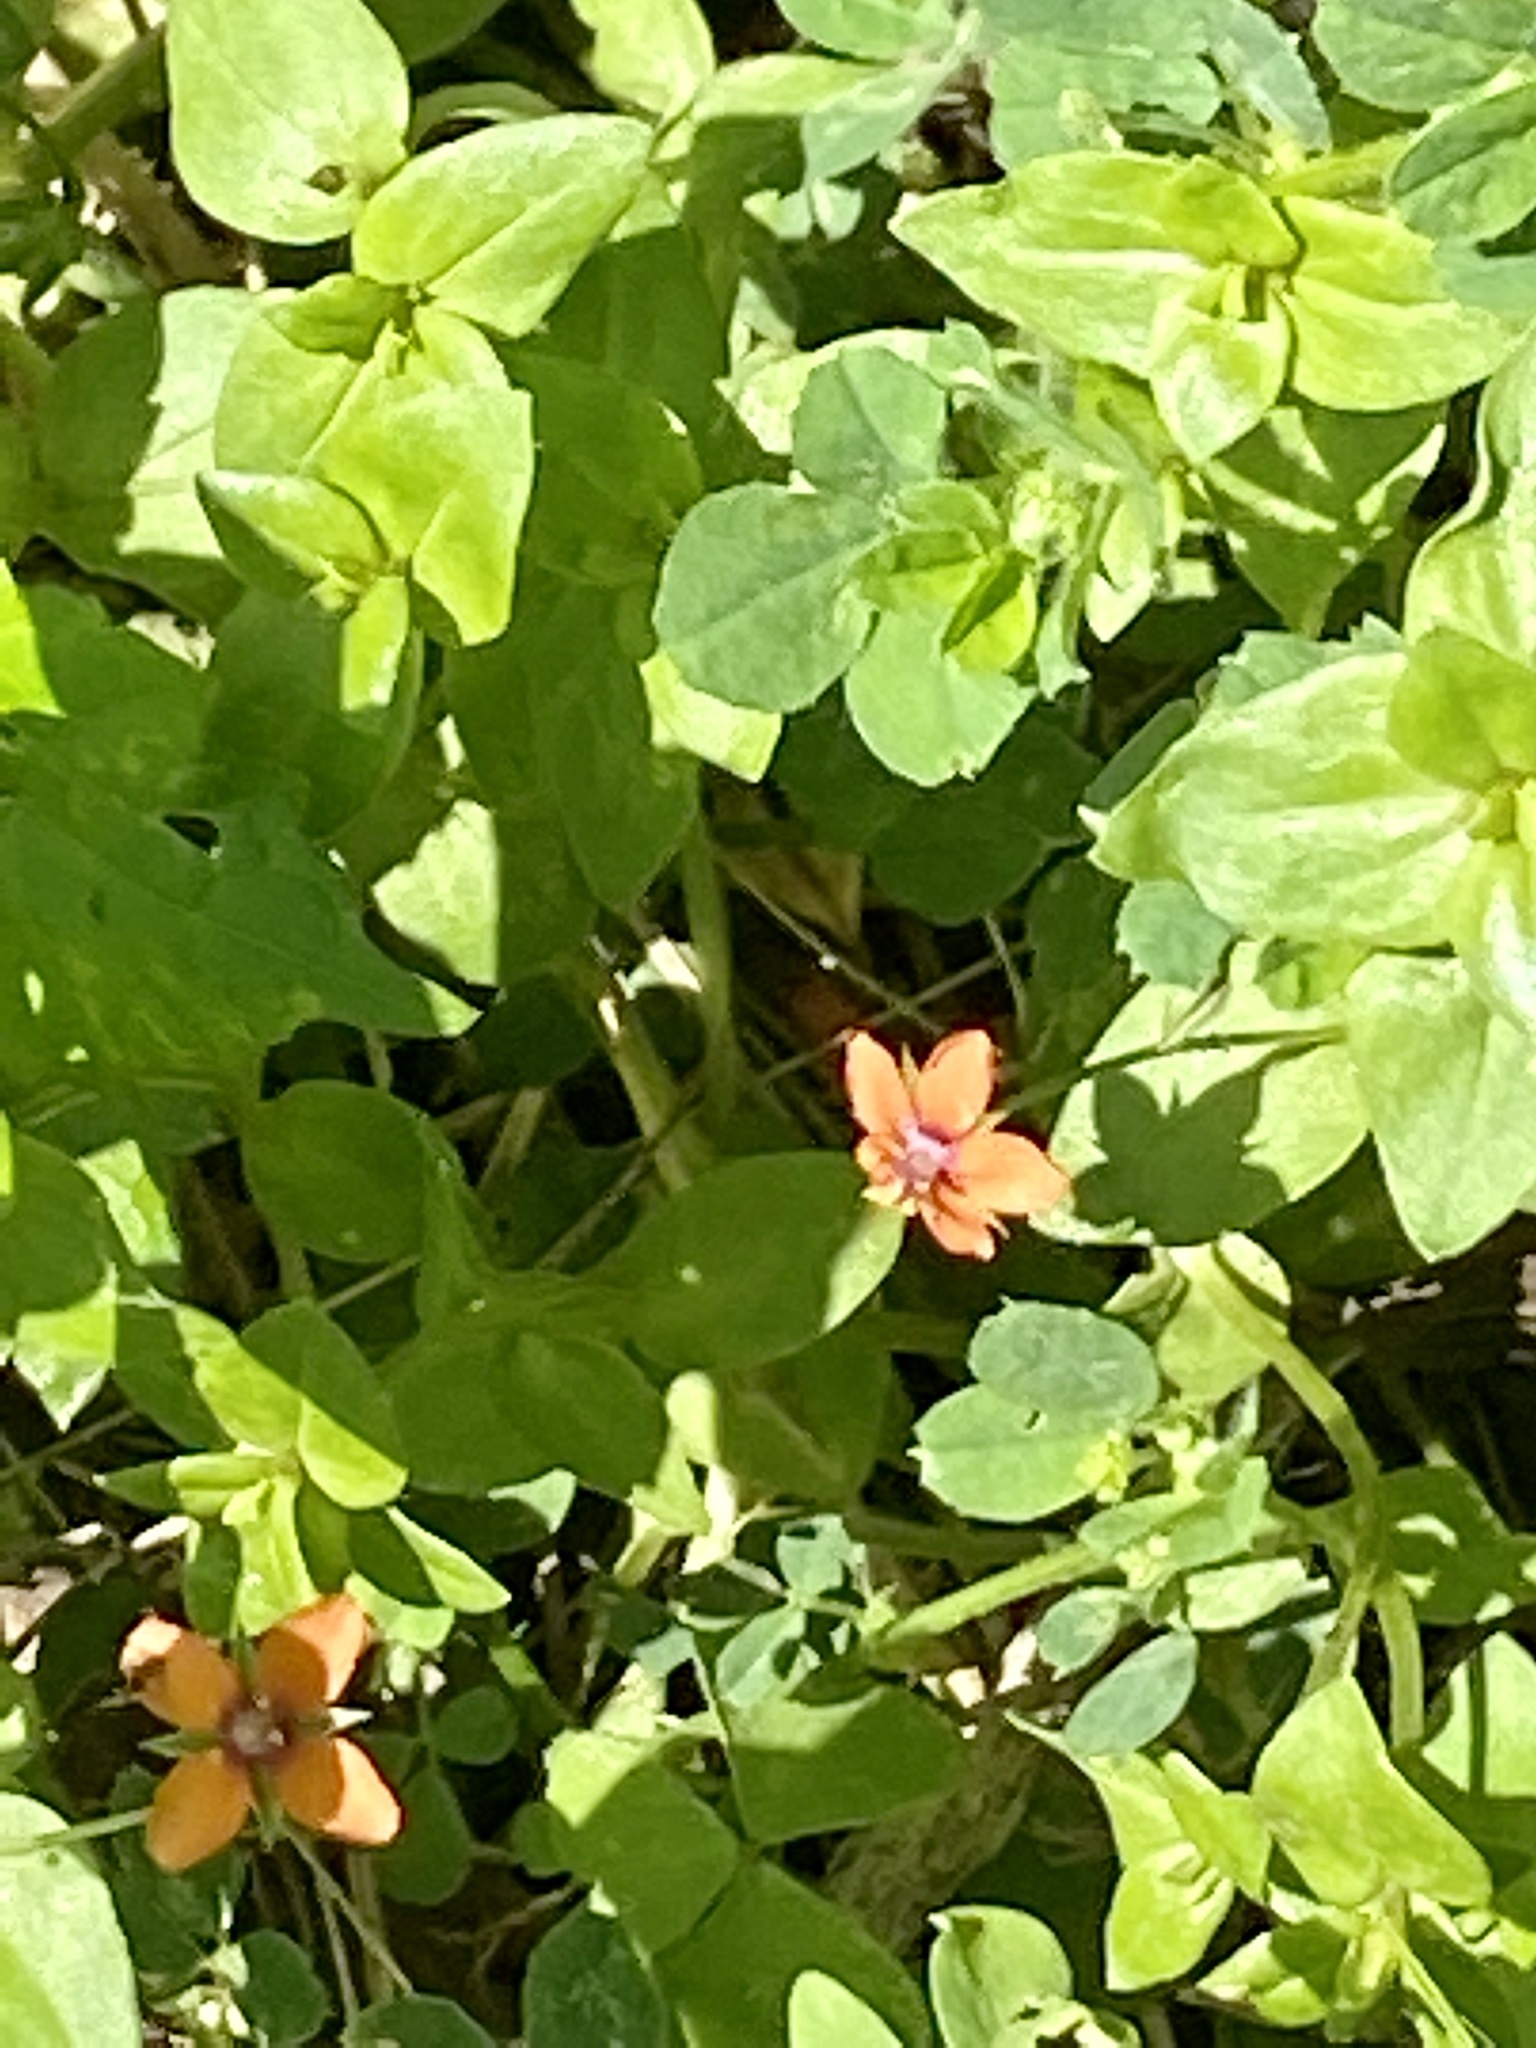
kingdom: Plantae
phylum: Tracheophyta
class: Magnoliopsida
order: Ericales
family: Primulaceae
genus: Lysimachia
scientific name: Lysimachia arvensis
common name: Scarlet pimpernel
